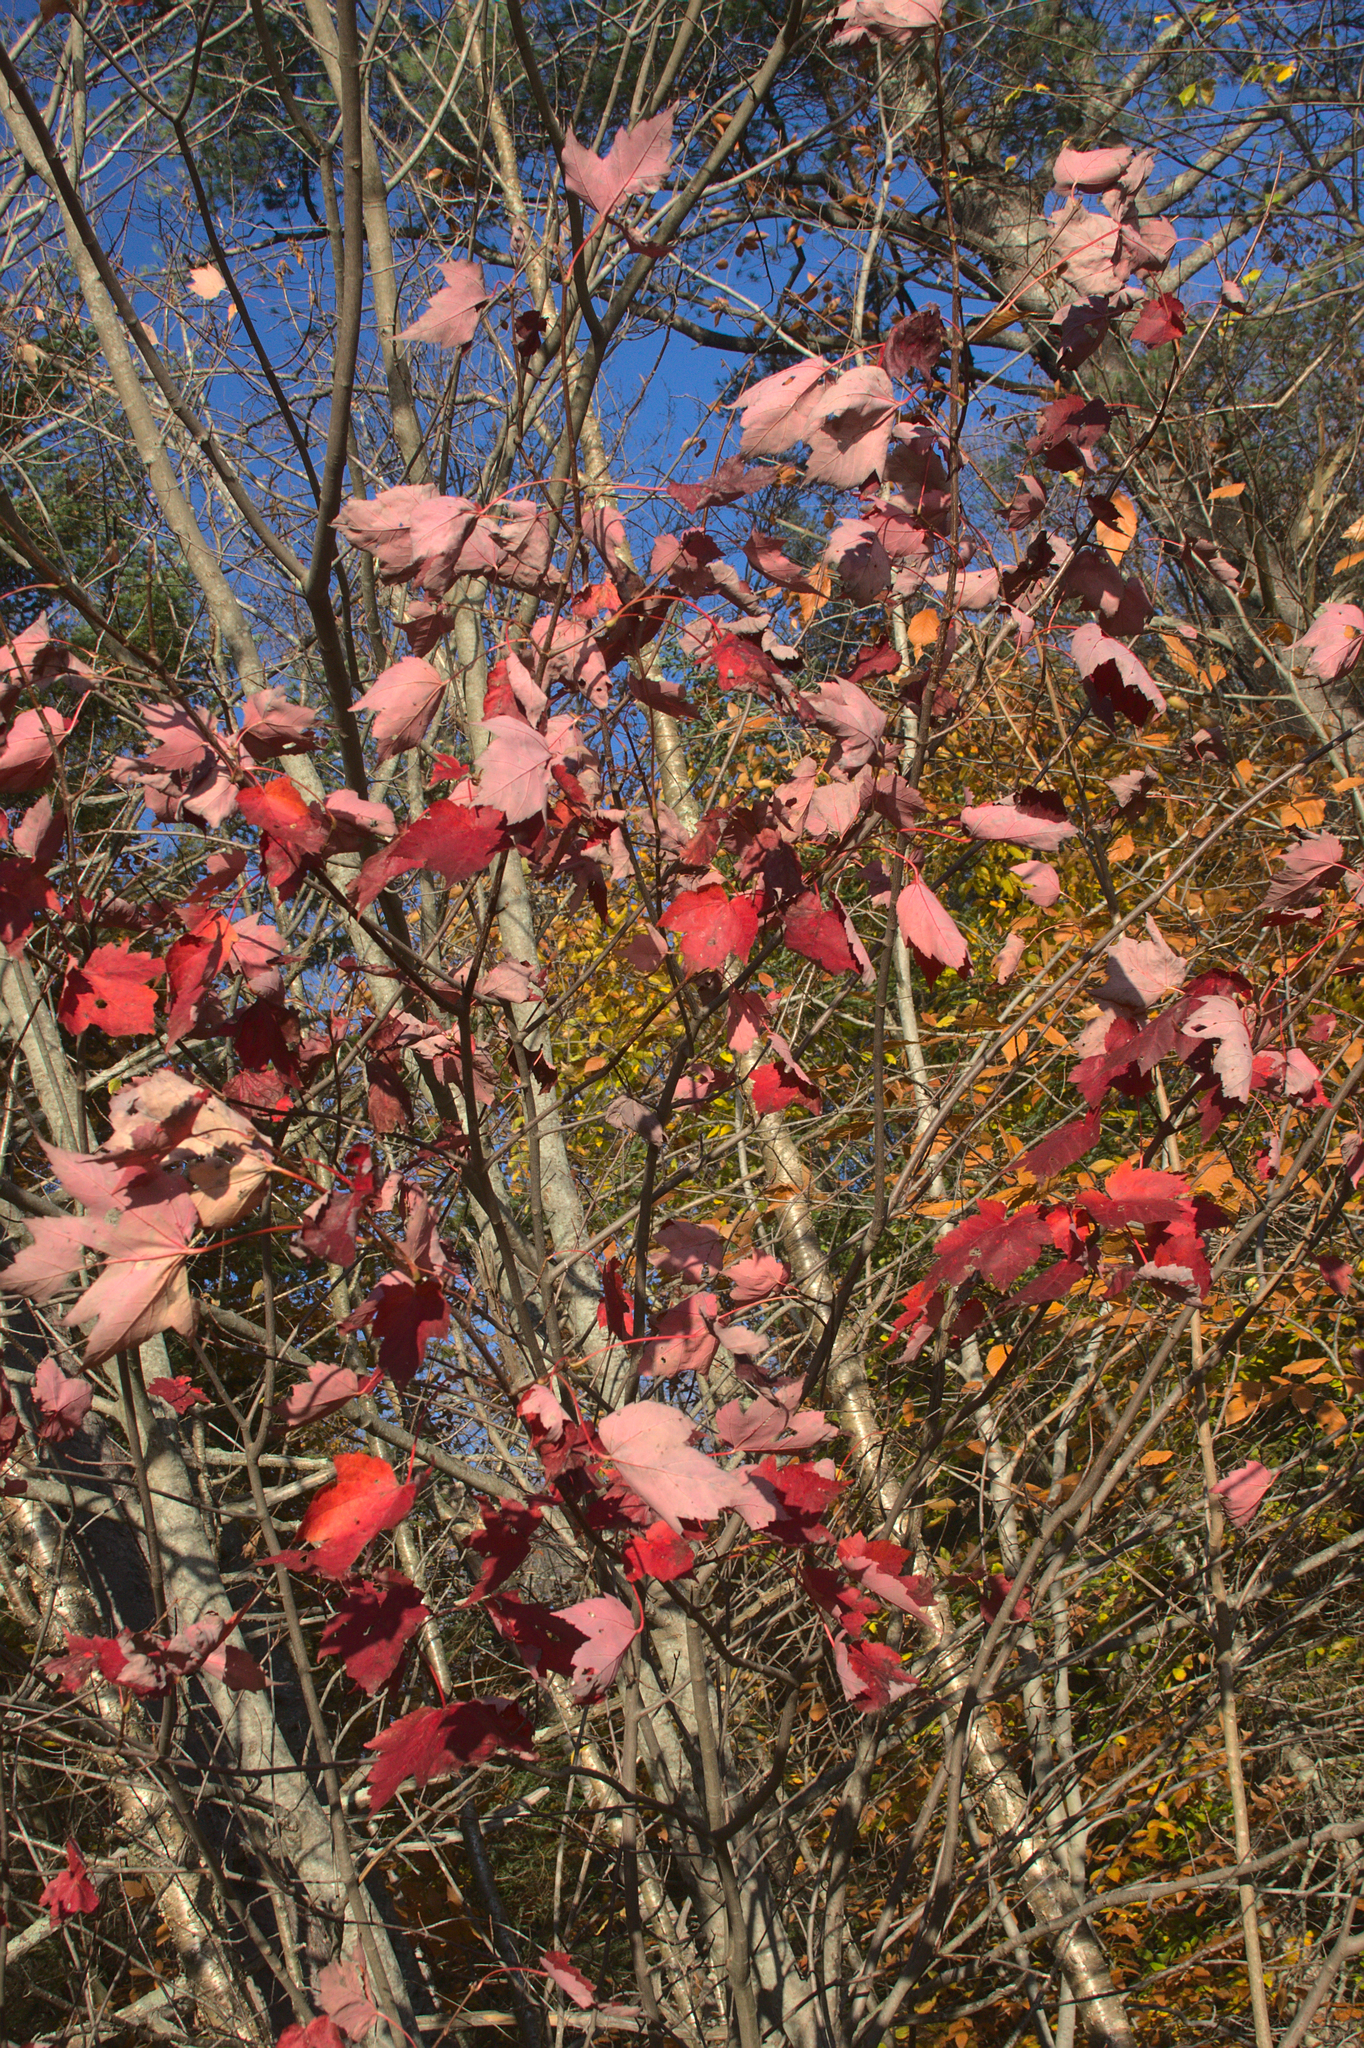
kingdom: Plantae
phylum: Tracheophyta
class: Magnoliopsida
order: Sapindales
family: Sapindaceae
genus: Acer
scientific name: Acer rubrum
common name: Red maple
